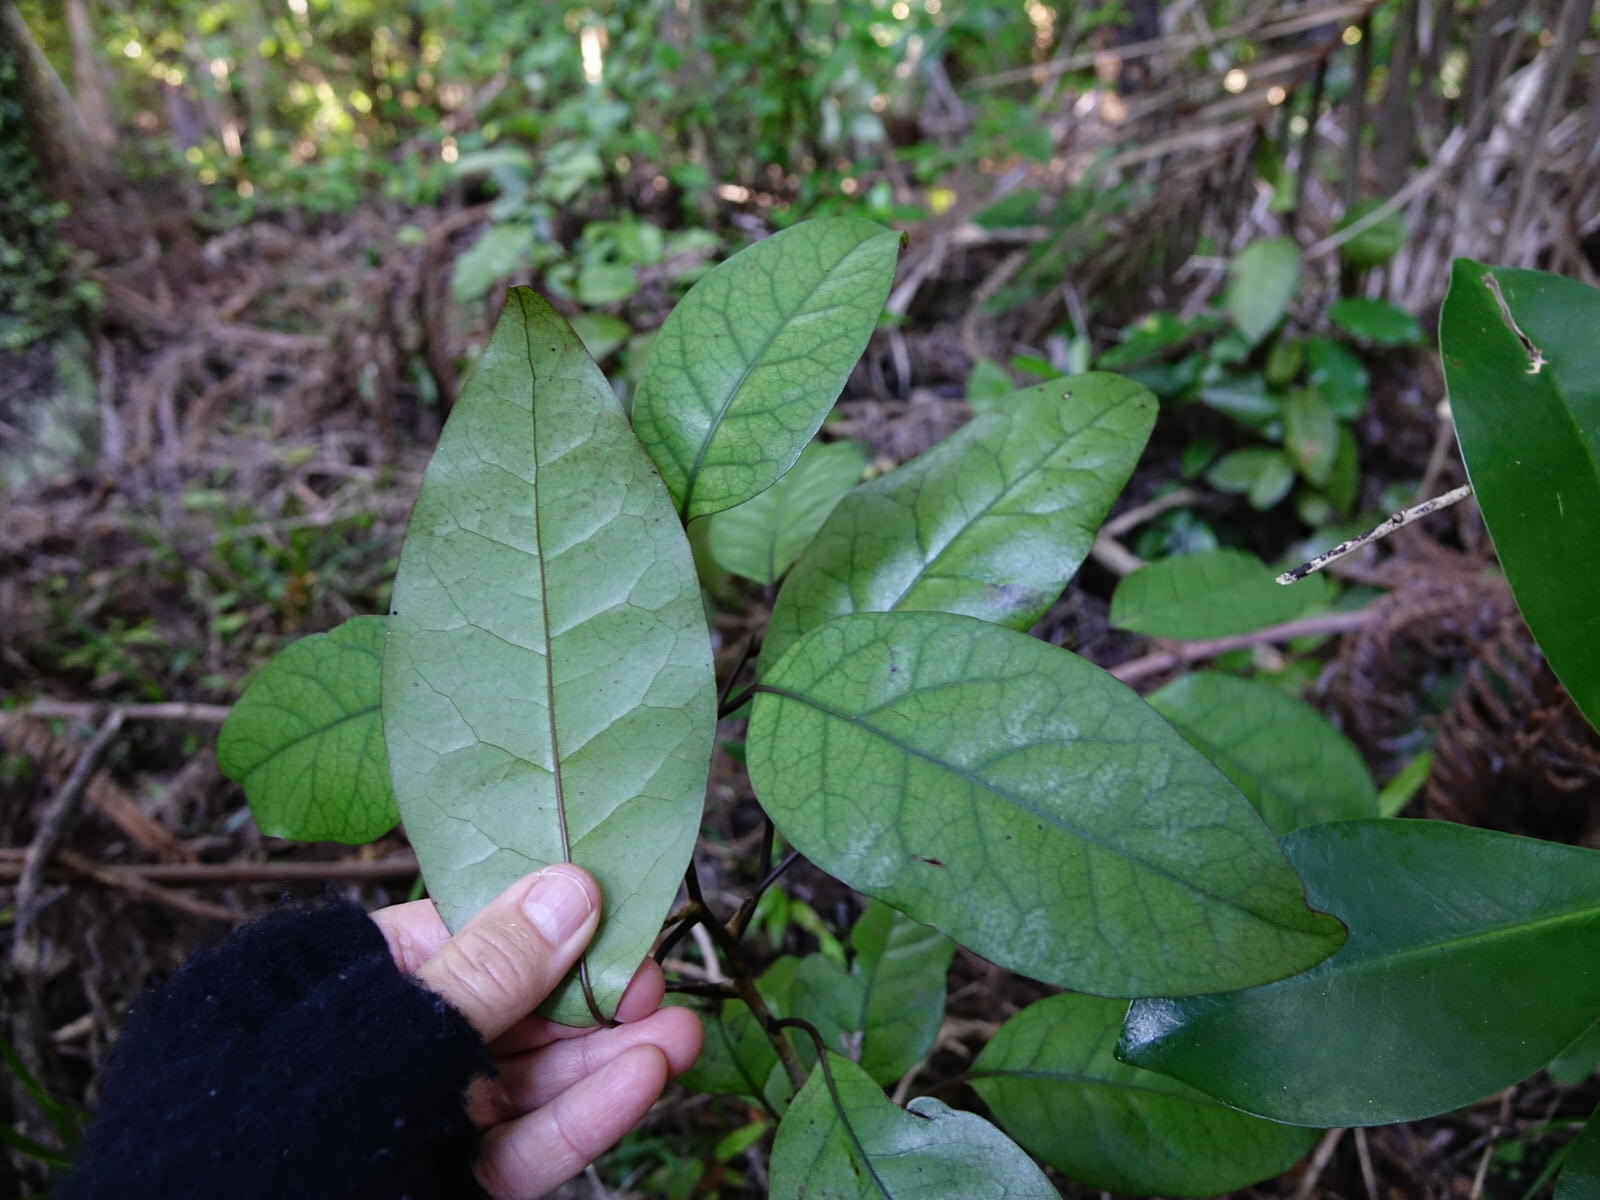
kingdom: Plantae
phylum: Tracheophyta
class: Magnoliopsida
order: Laurales
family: Lauraceae
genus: Litsea
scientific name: Litsea calicaris
